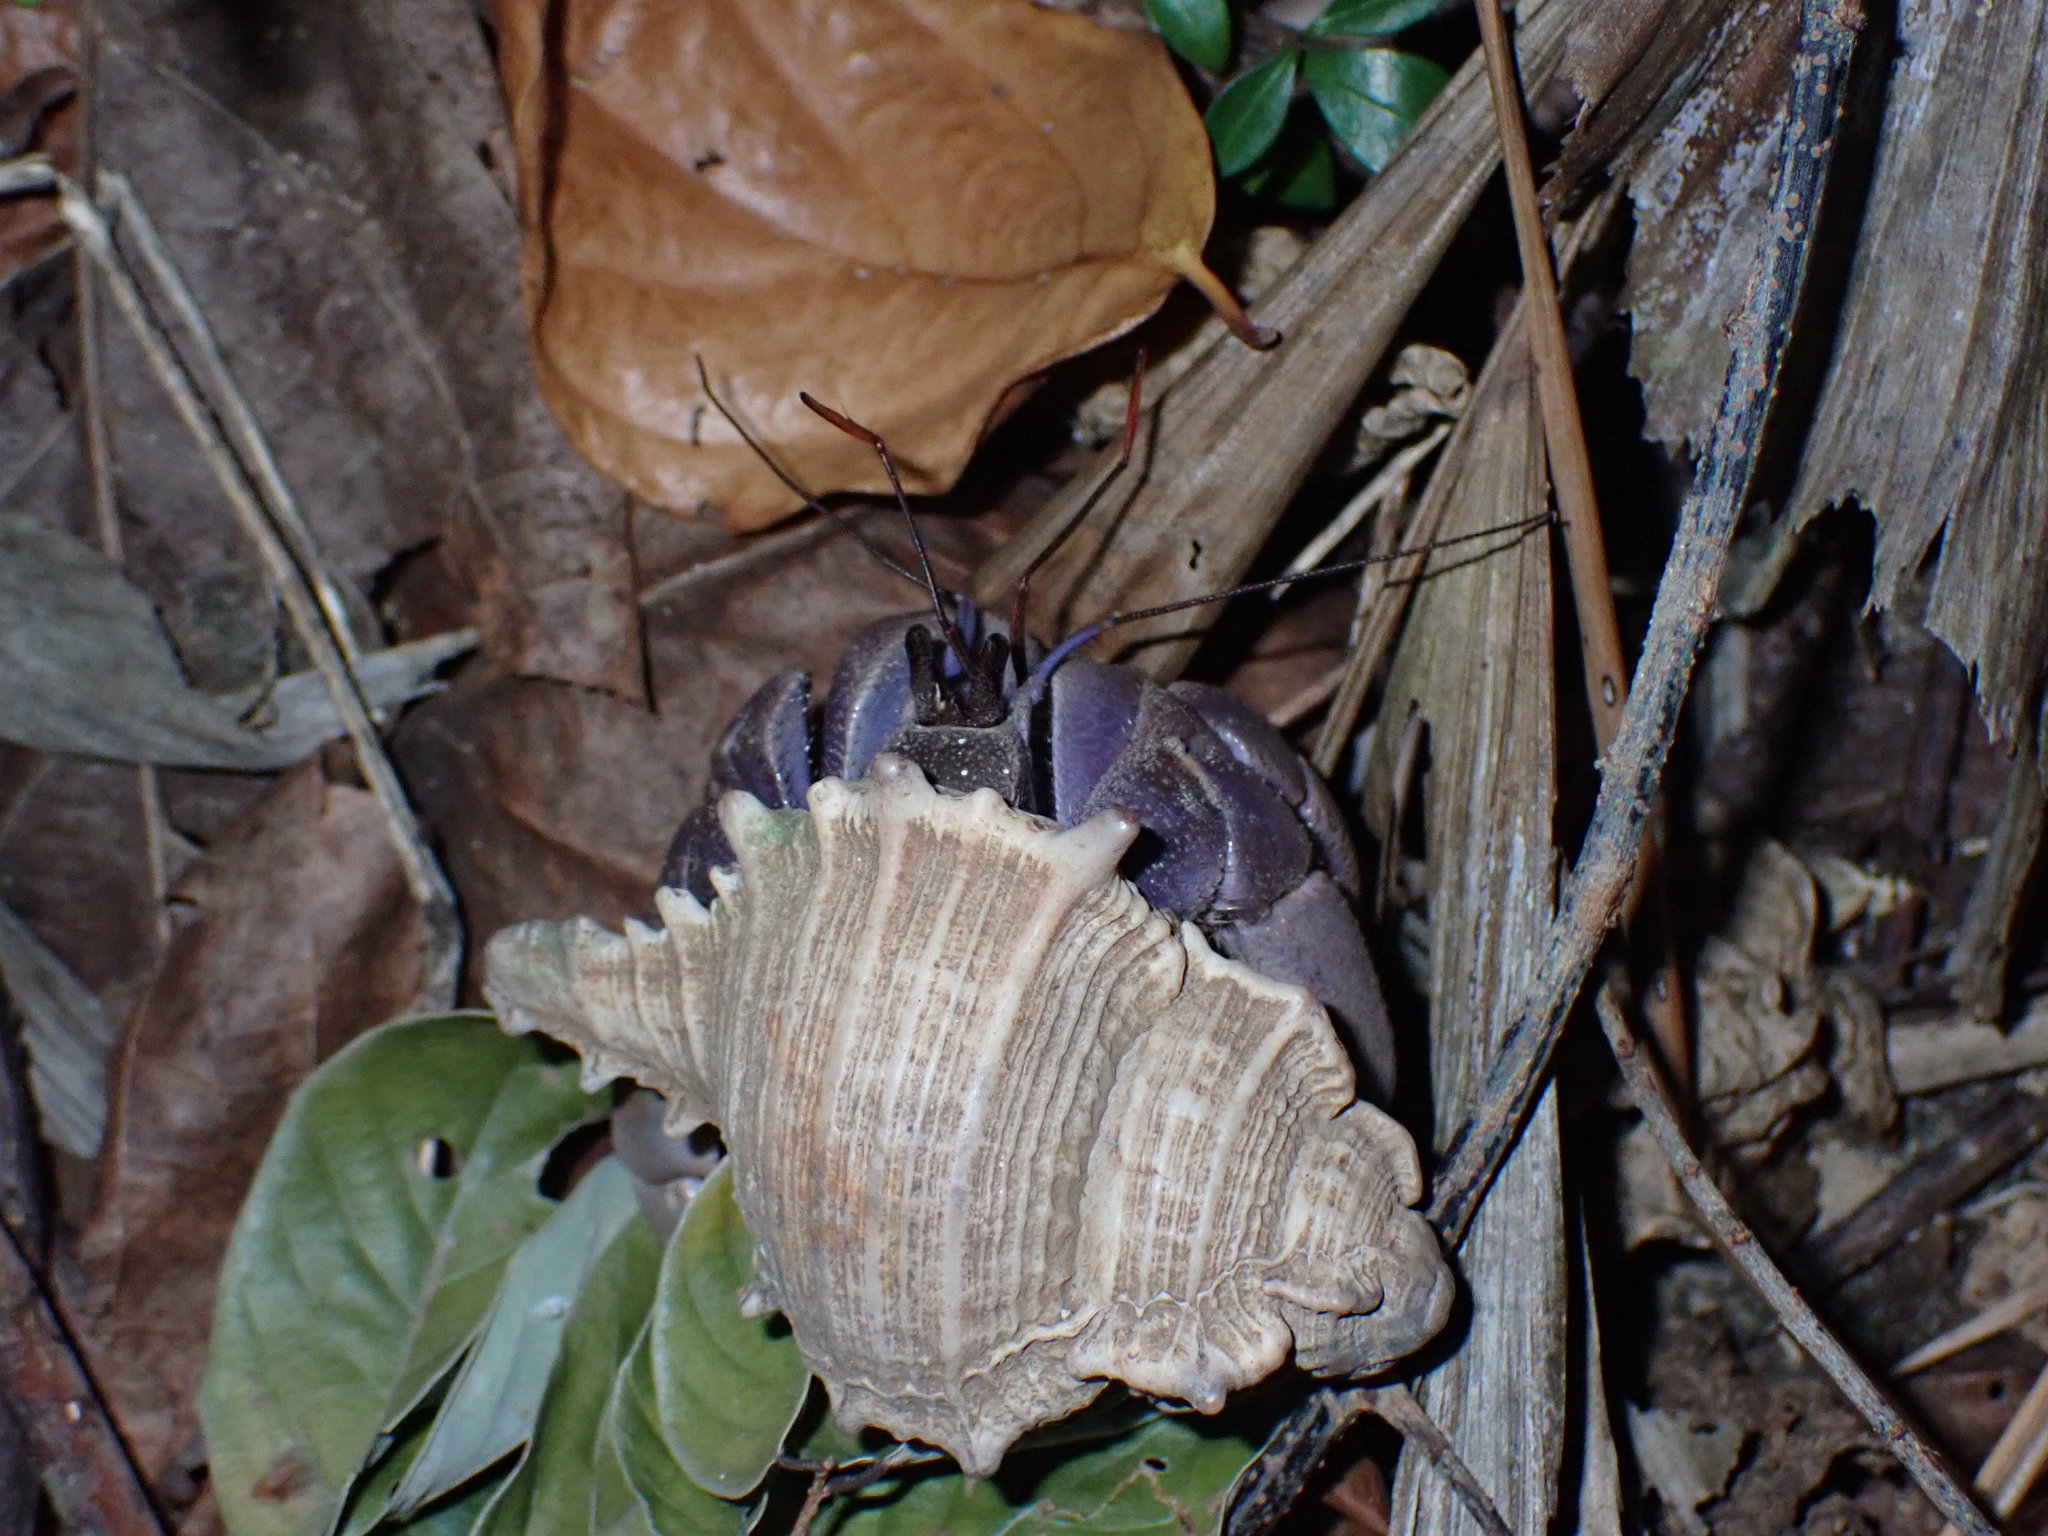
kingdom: Animalia
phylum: Arthropoda
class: Malacostraca
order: Decapoda
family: Coenobitidae
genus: Coenobita
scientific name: Coenobita violascens
